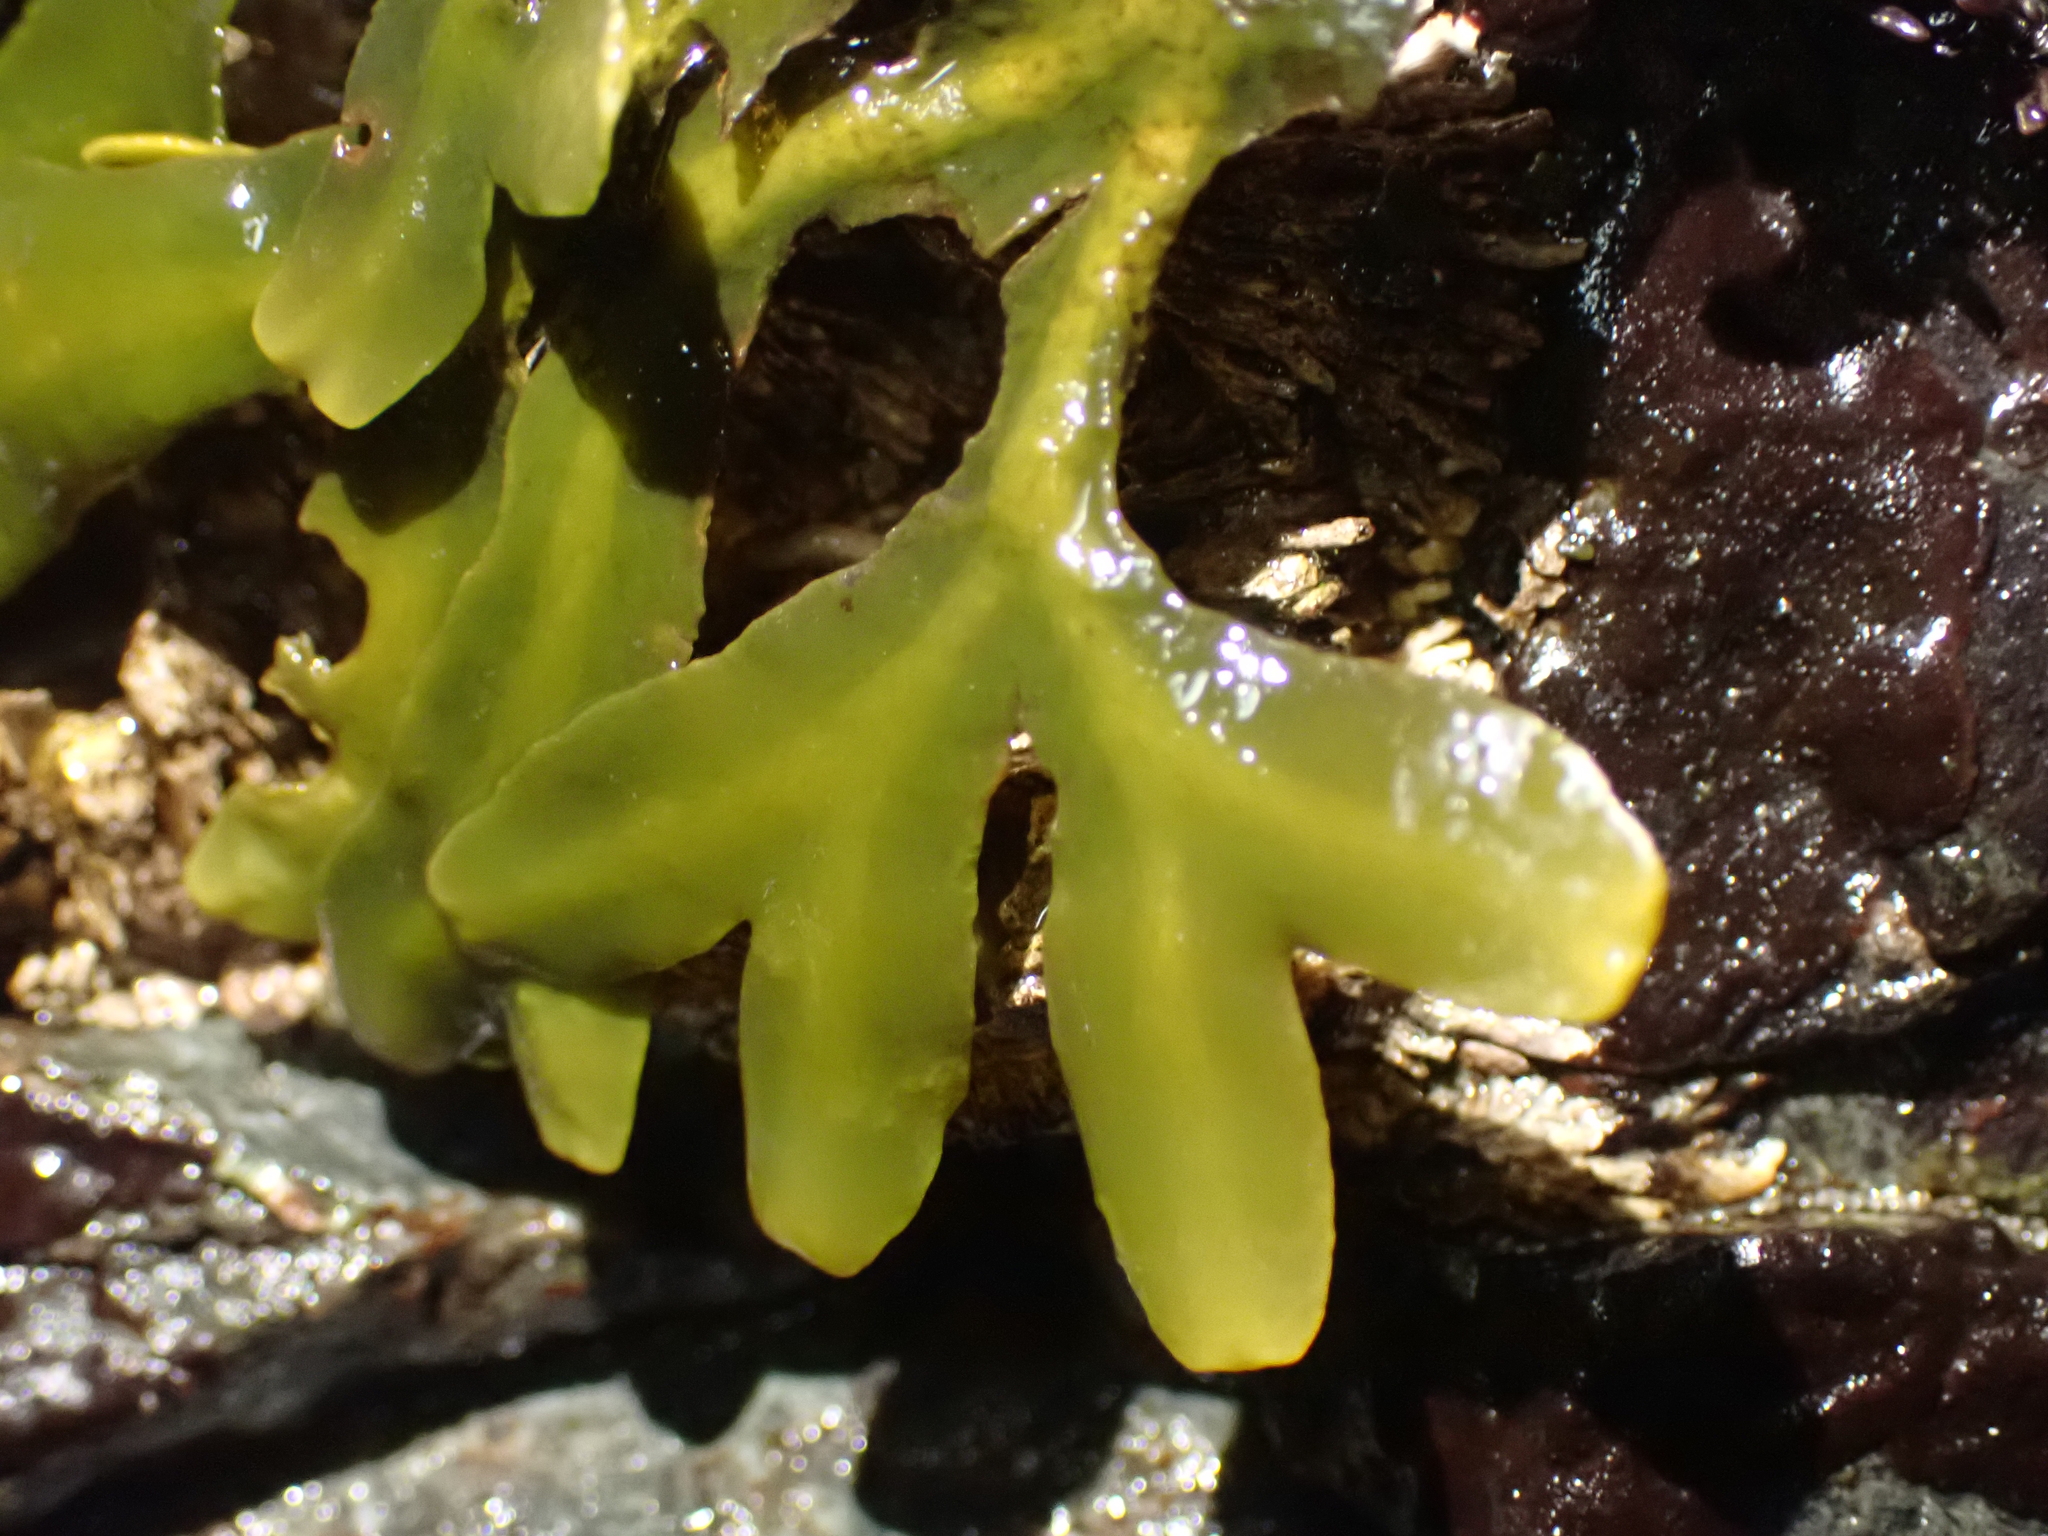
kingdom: Chromista
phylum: Ochrophyta
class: Phaeophyceae
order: Fucales
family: Fucaceae
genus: Fucus
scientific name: Fucus distichus
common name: Rockweed
